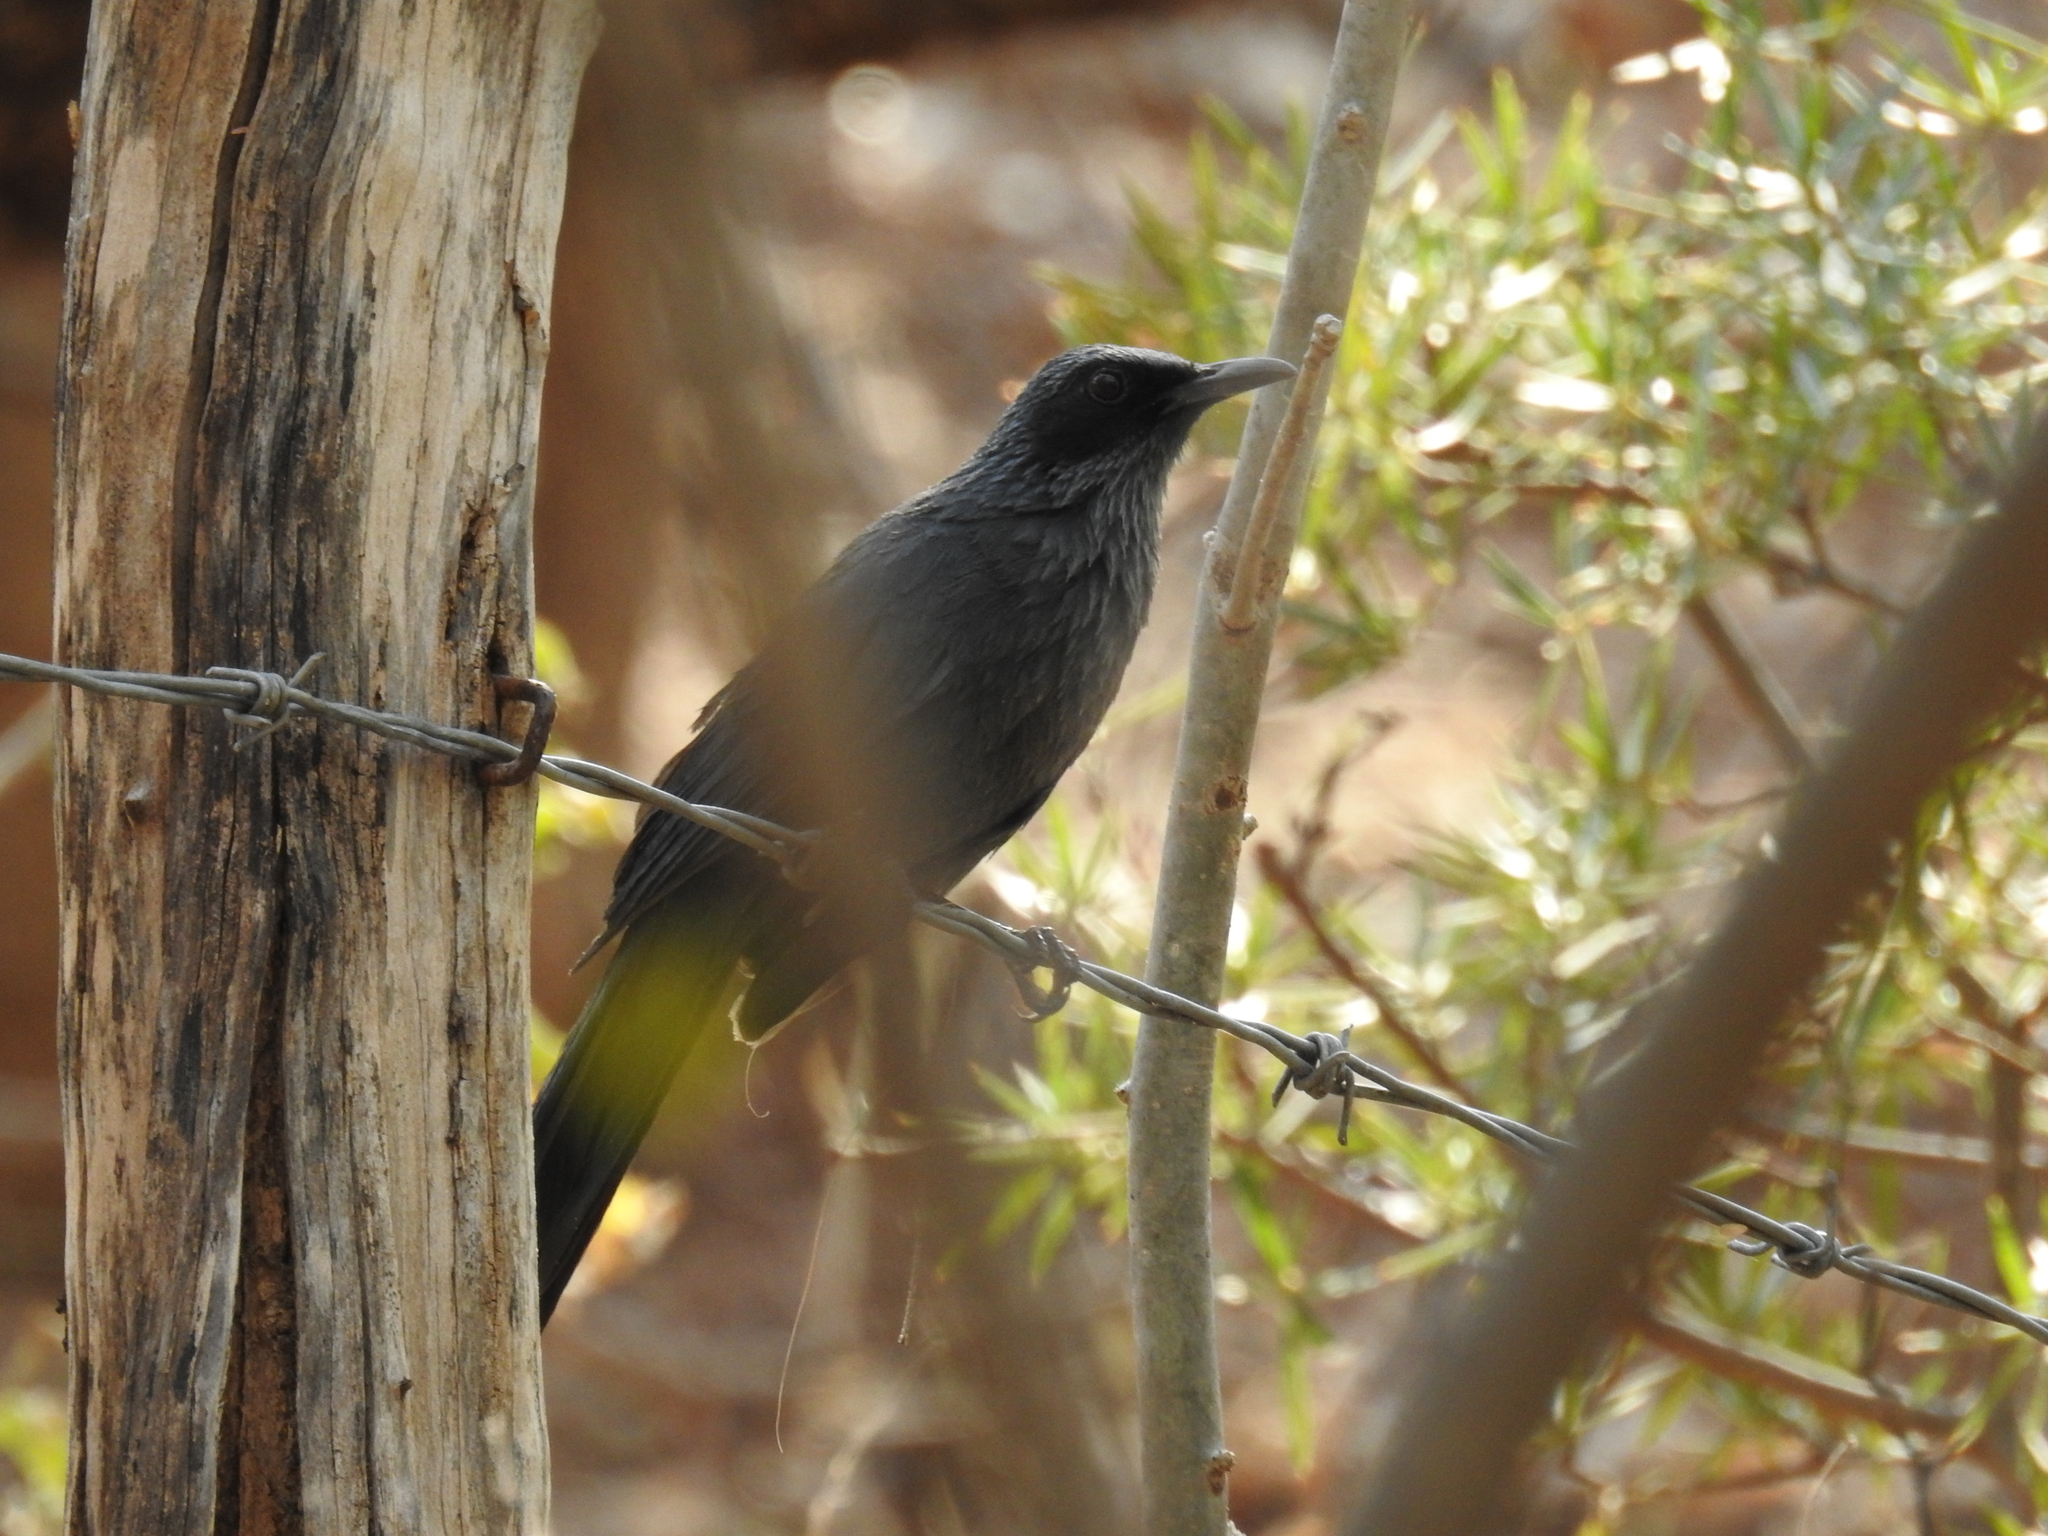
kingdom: Animalia
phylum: Chordata
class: Aves
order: Passeriformes
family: Mimidae
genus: Melanotis
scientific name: Melanotis caerulescens
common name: Blue mockingbird
